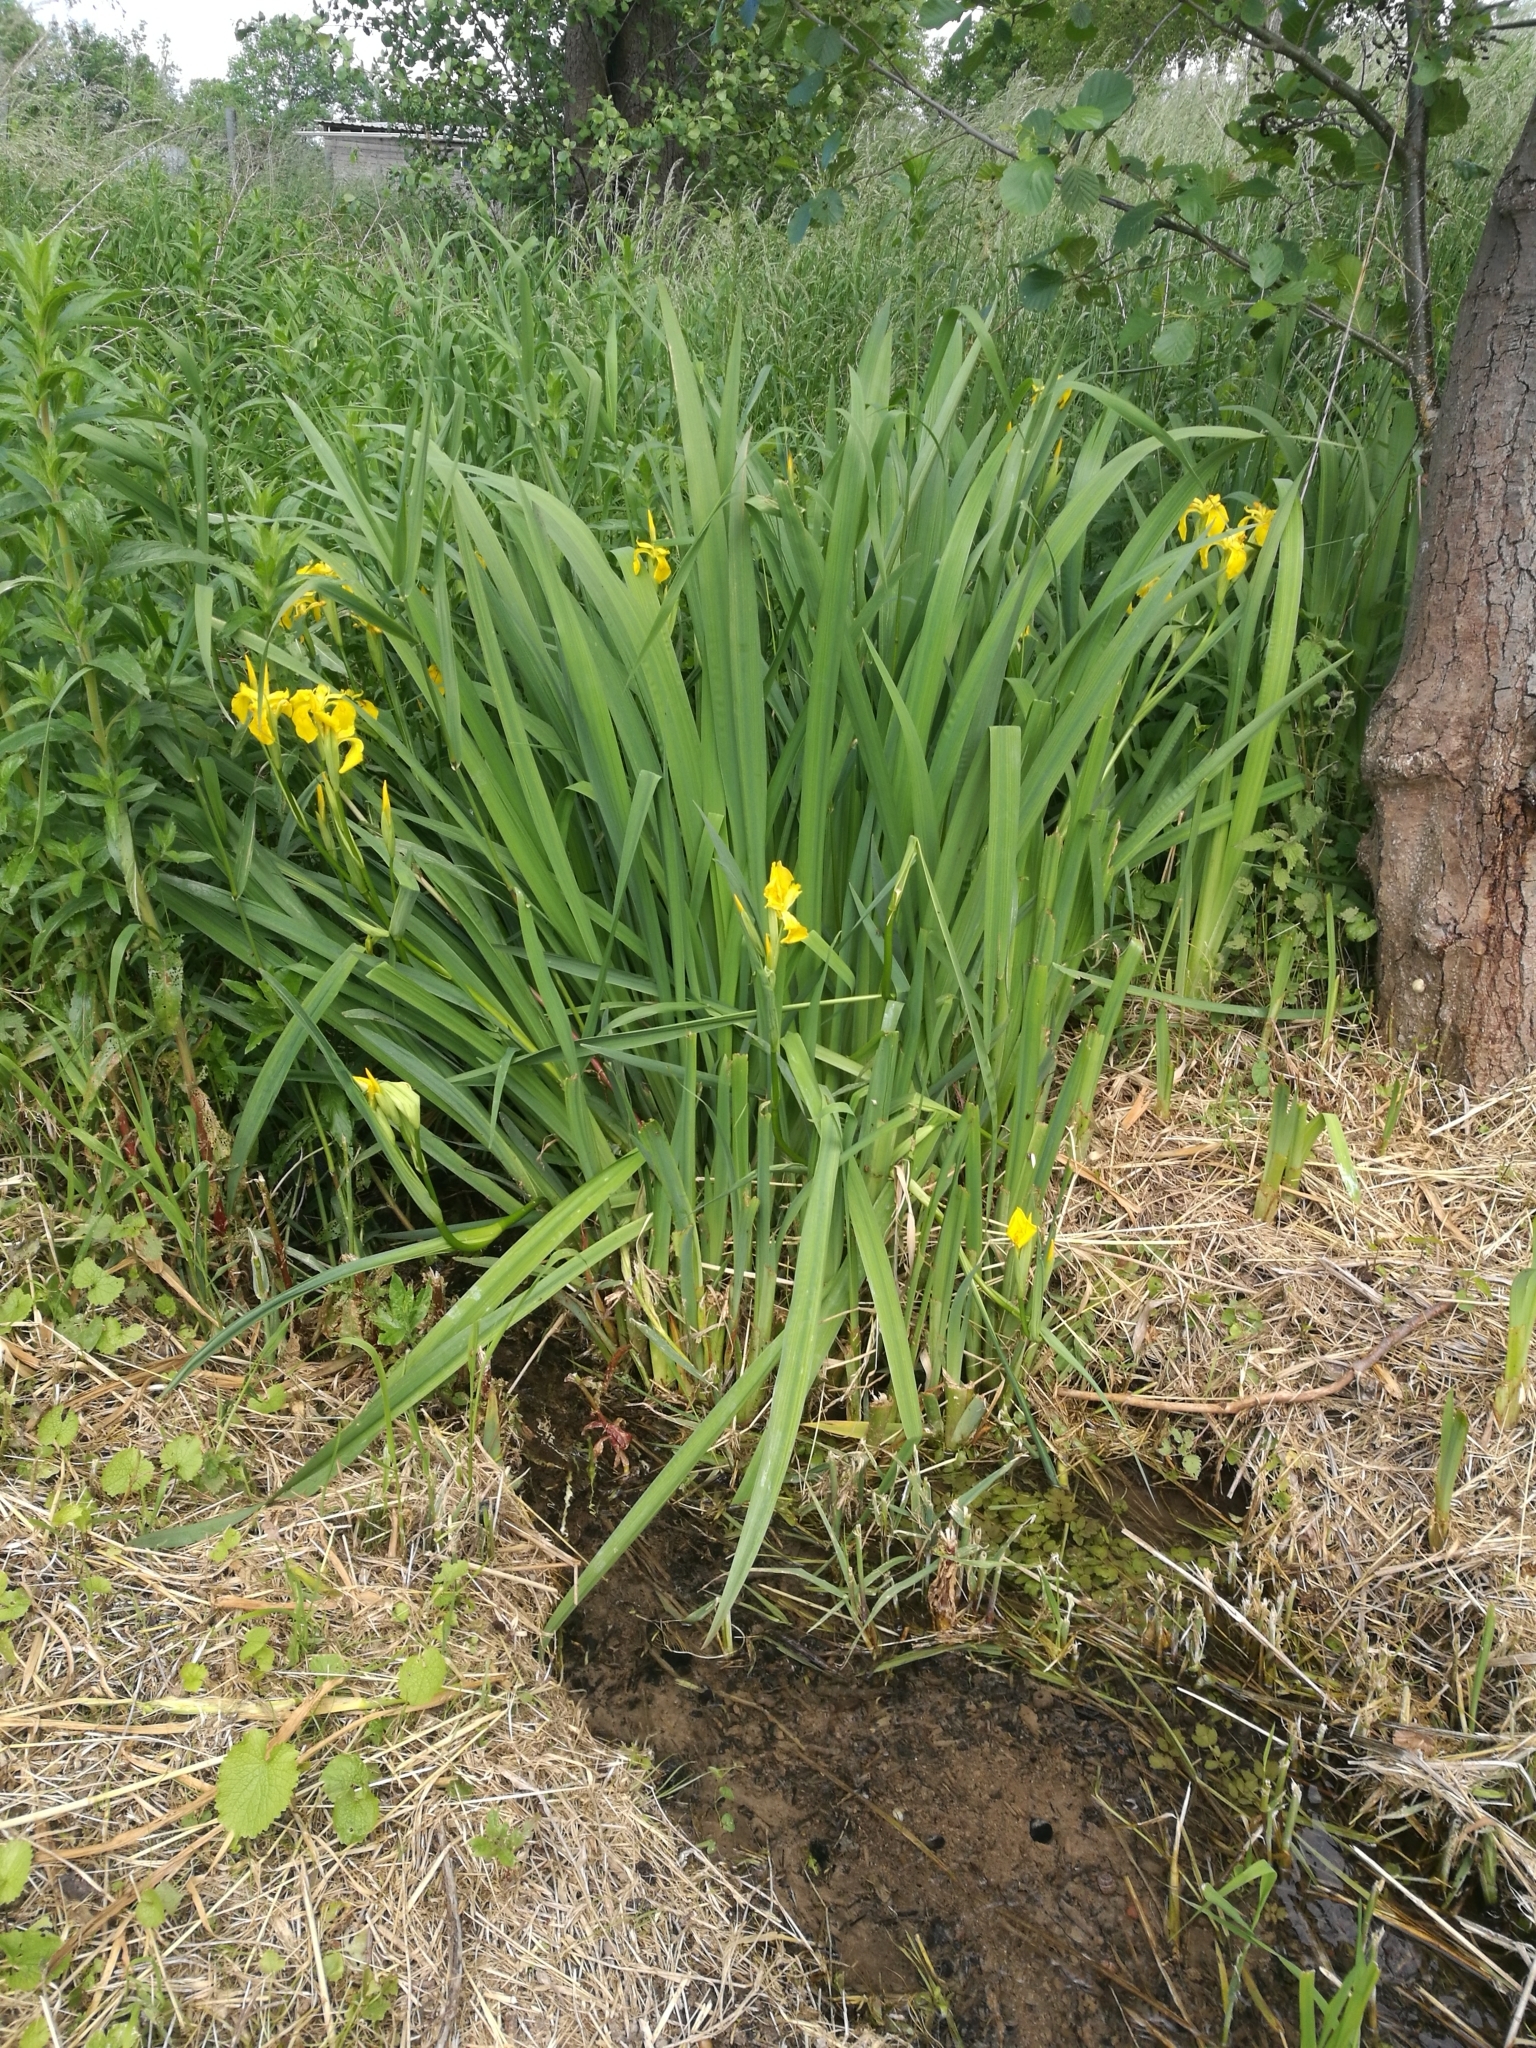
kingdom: Plantae
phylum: Tracheophyta
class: Liliopsida
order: Asparagales
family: Iridaceae
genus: Iris
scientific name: Iris pseudacorus
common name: Yellow flag
